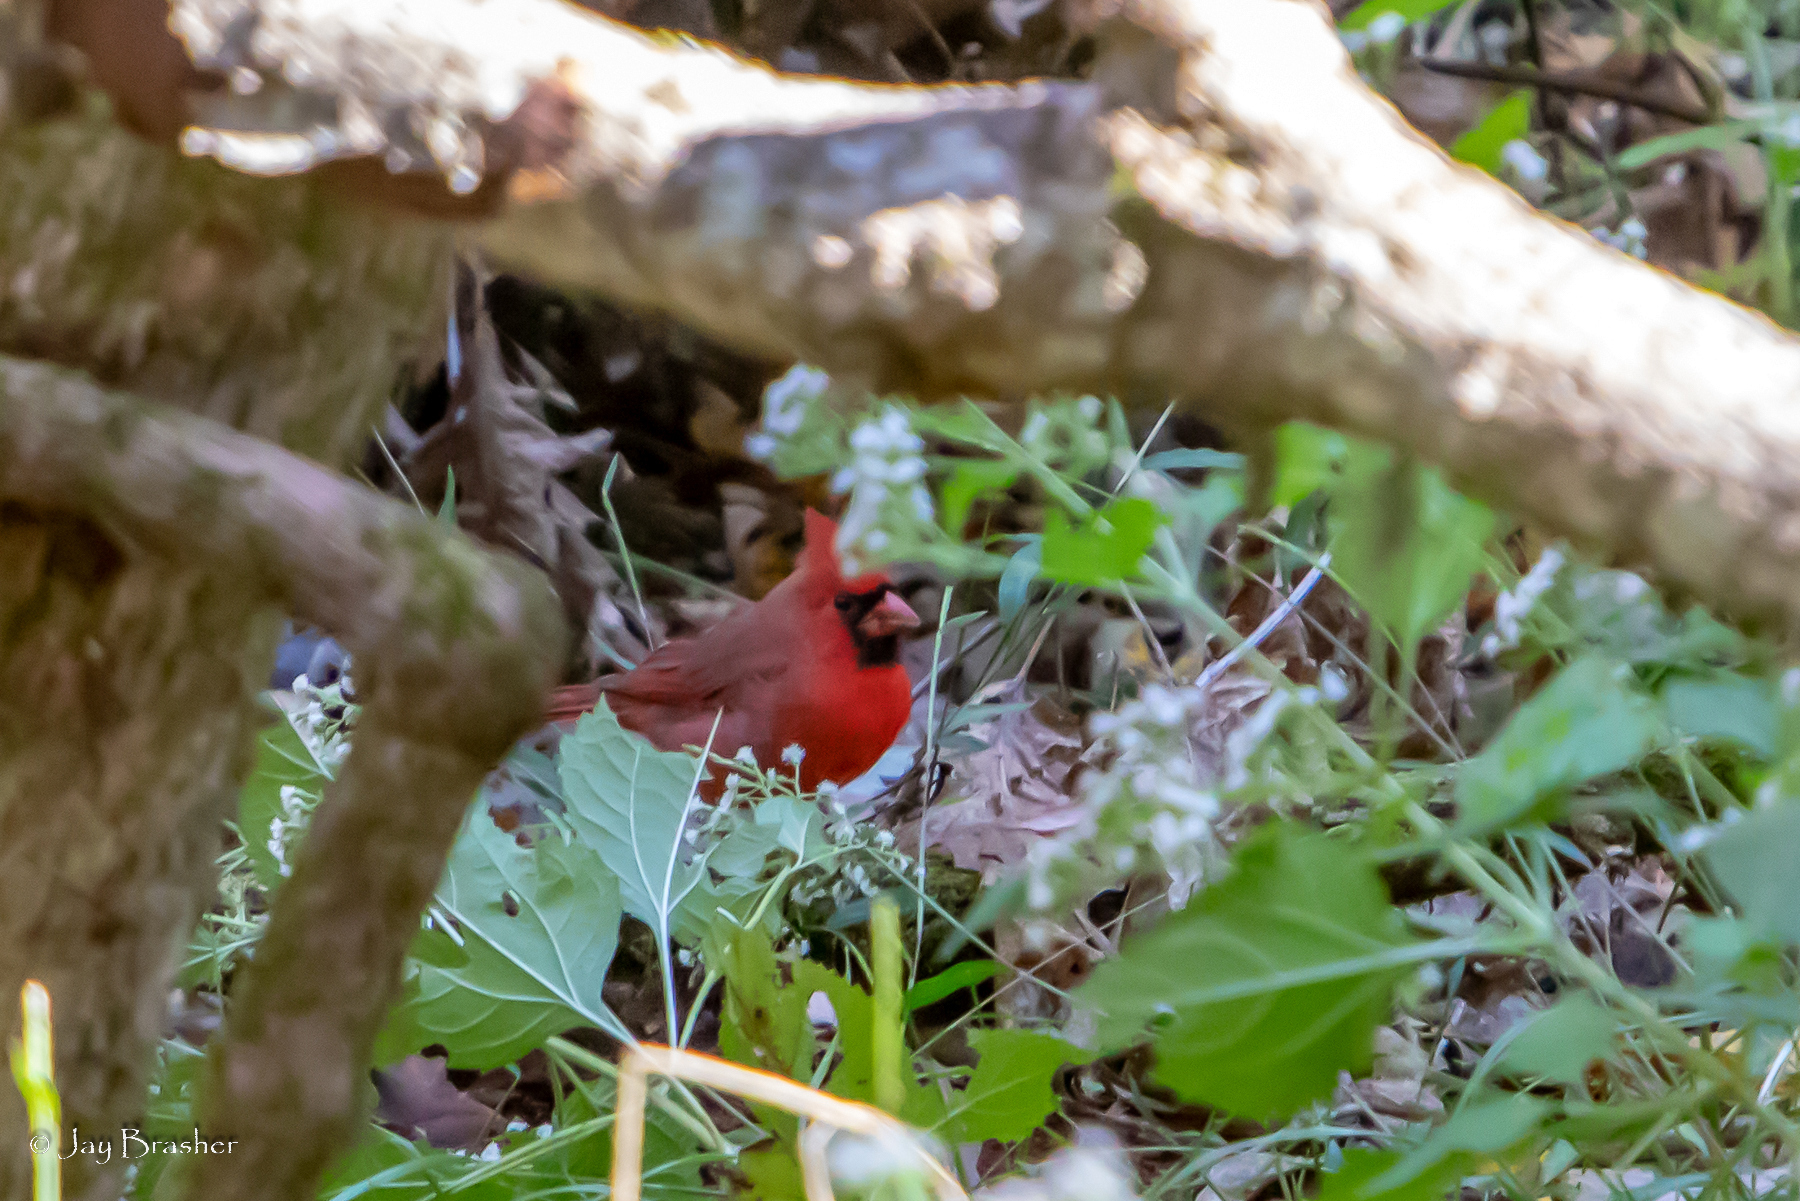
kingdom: Animalia
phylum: Chordata
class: Aves
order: Passeriformes
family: Cardinalidae
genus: Cardinalis
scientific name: Cardinalis cardinalis
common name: Northern cardinal
